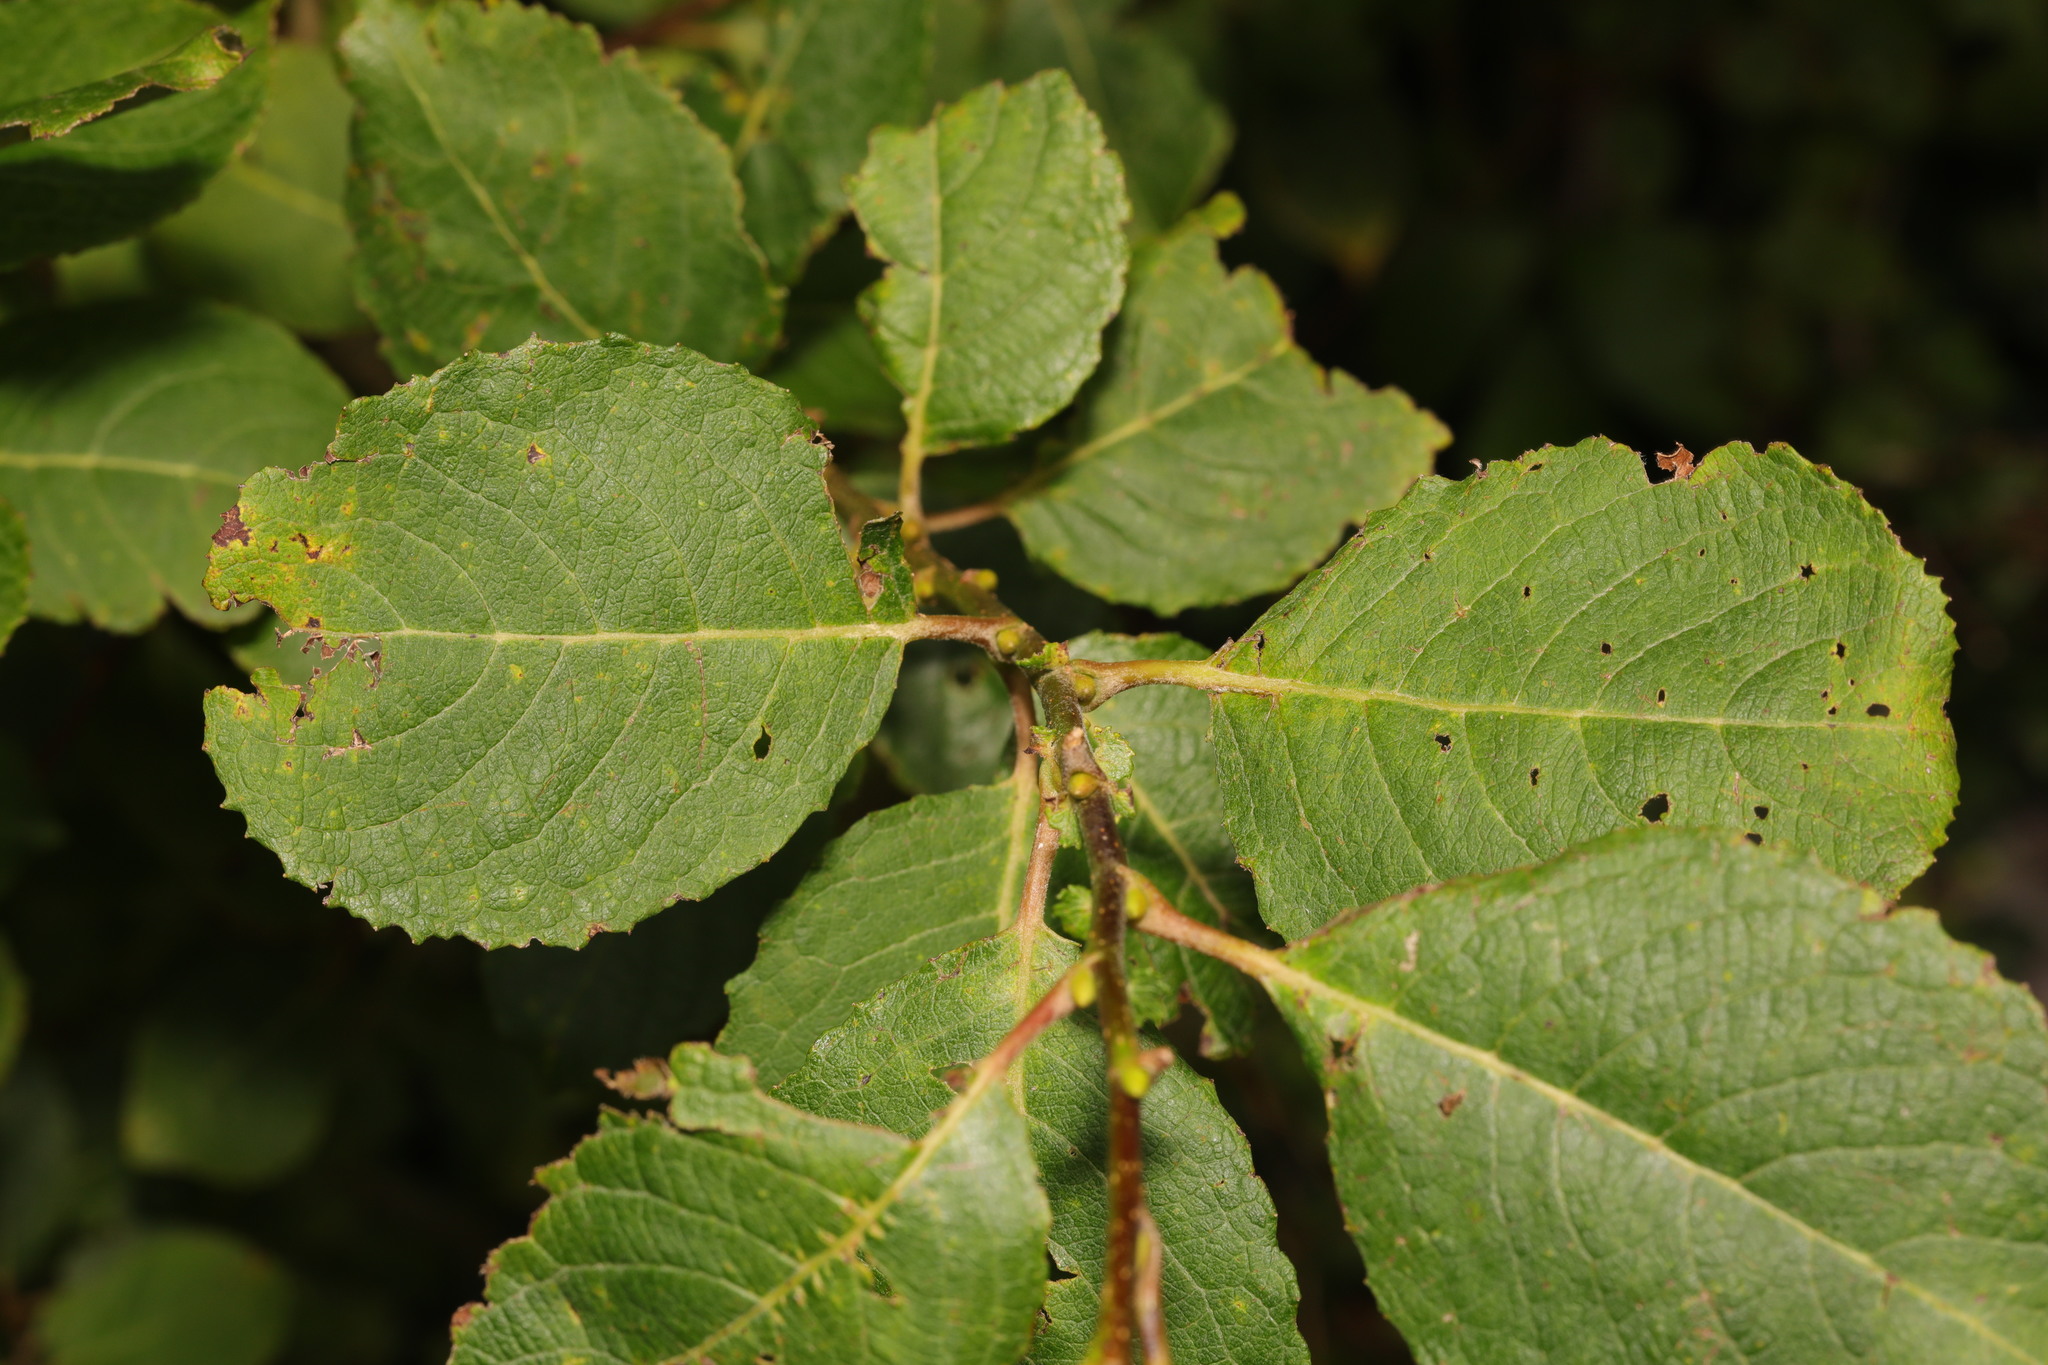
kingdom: Plantae
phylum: Tracheophyta
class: Magnoliopsida
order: Malpighiales
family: Salicaceae
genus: Salix
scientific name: Salix caprea
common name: Goat willow
